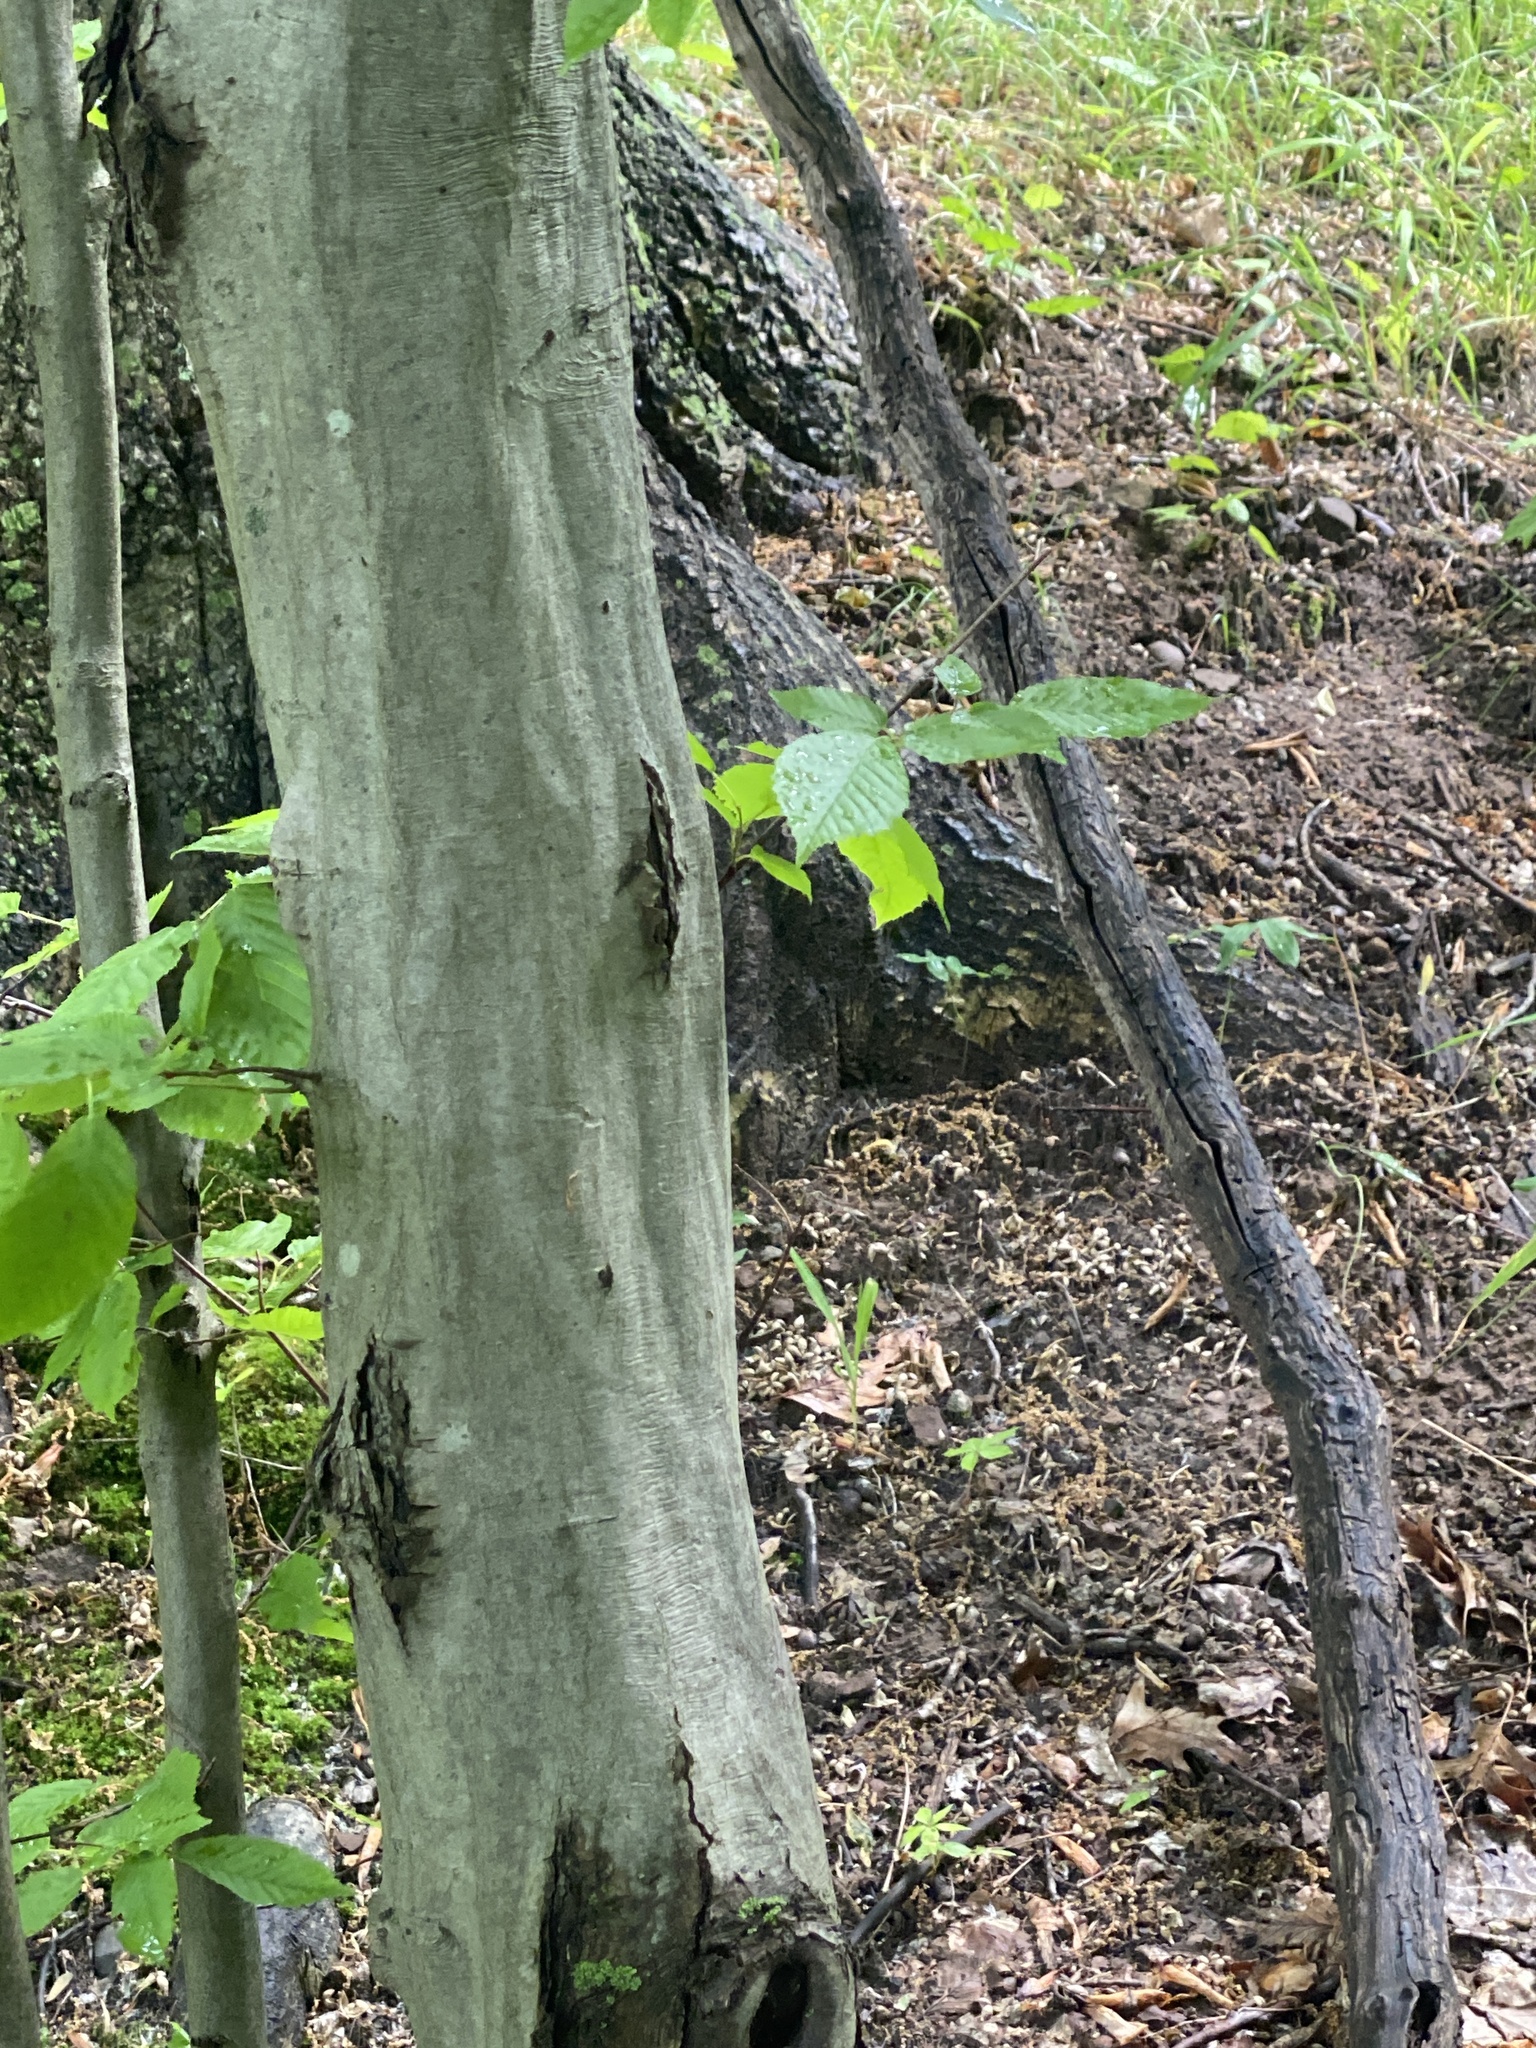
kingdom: Plantae
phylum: Tracheophyta
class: Magnoliopsida
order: Fagales
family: Betulaceae
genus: Carpinus
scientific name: Carpinus caroliniana
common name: American hornbeam
